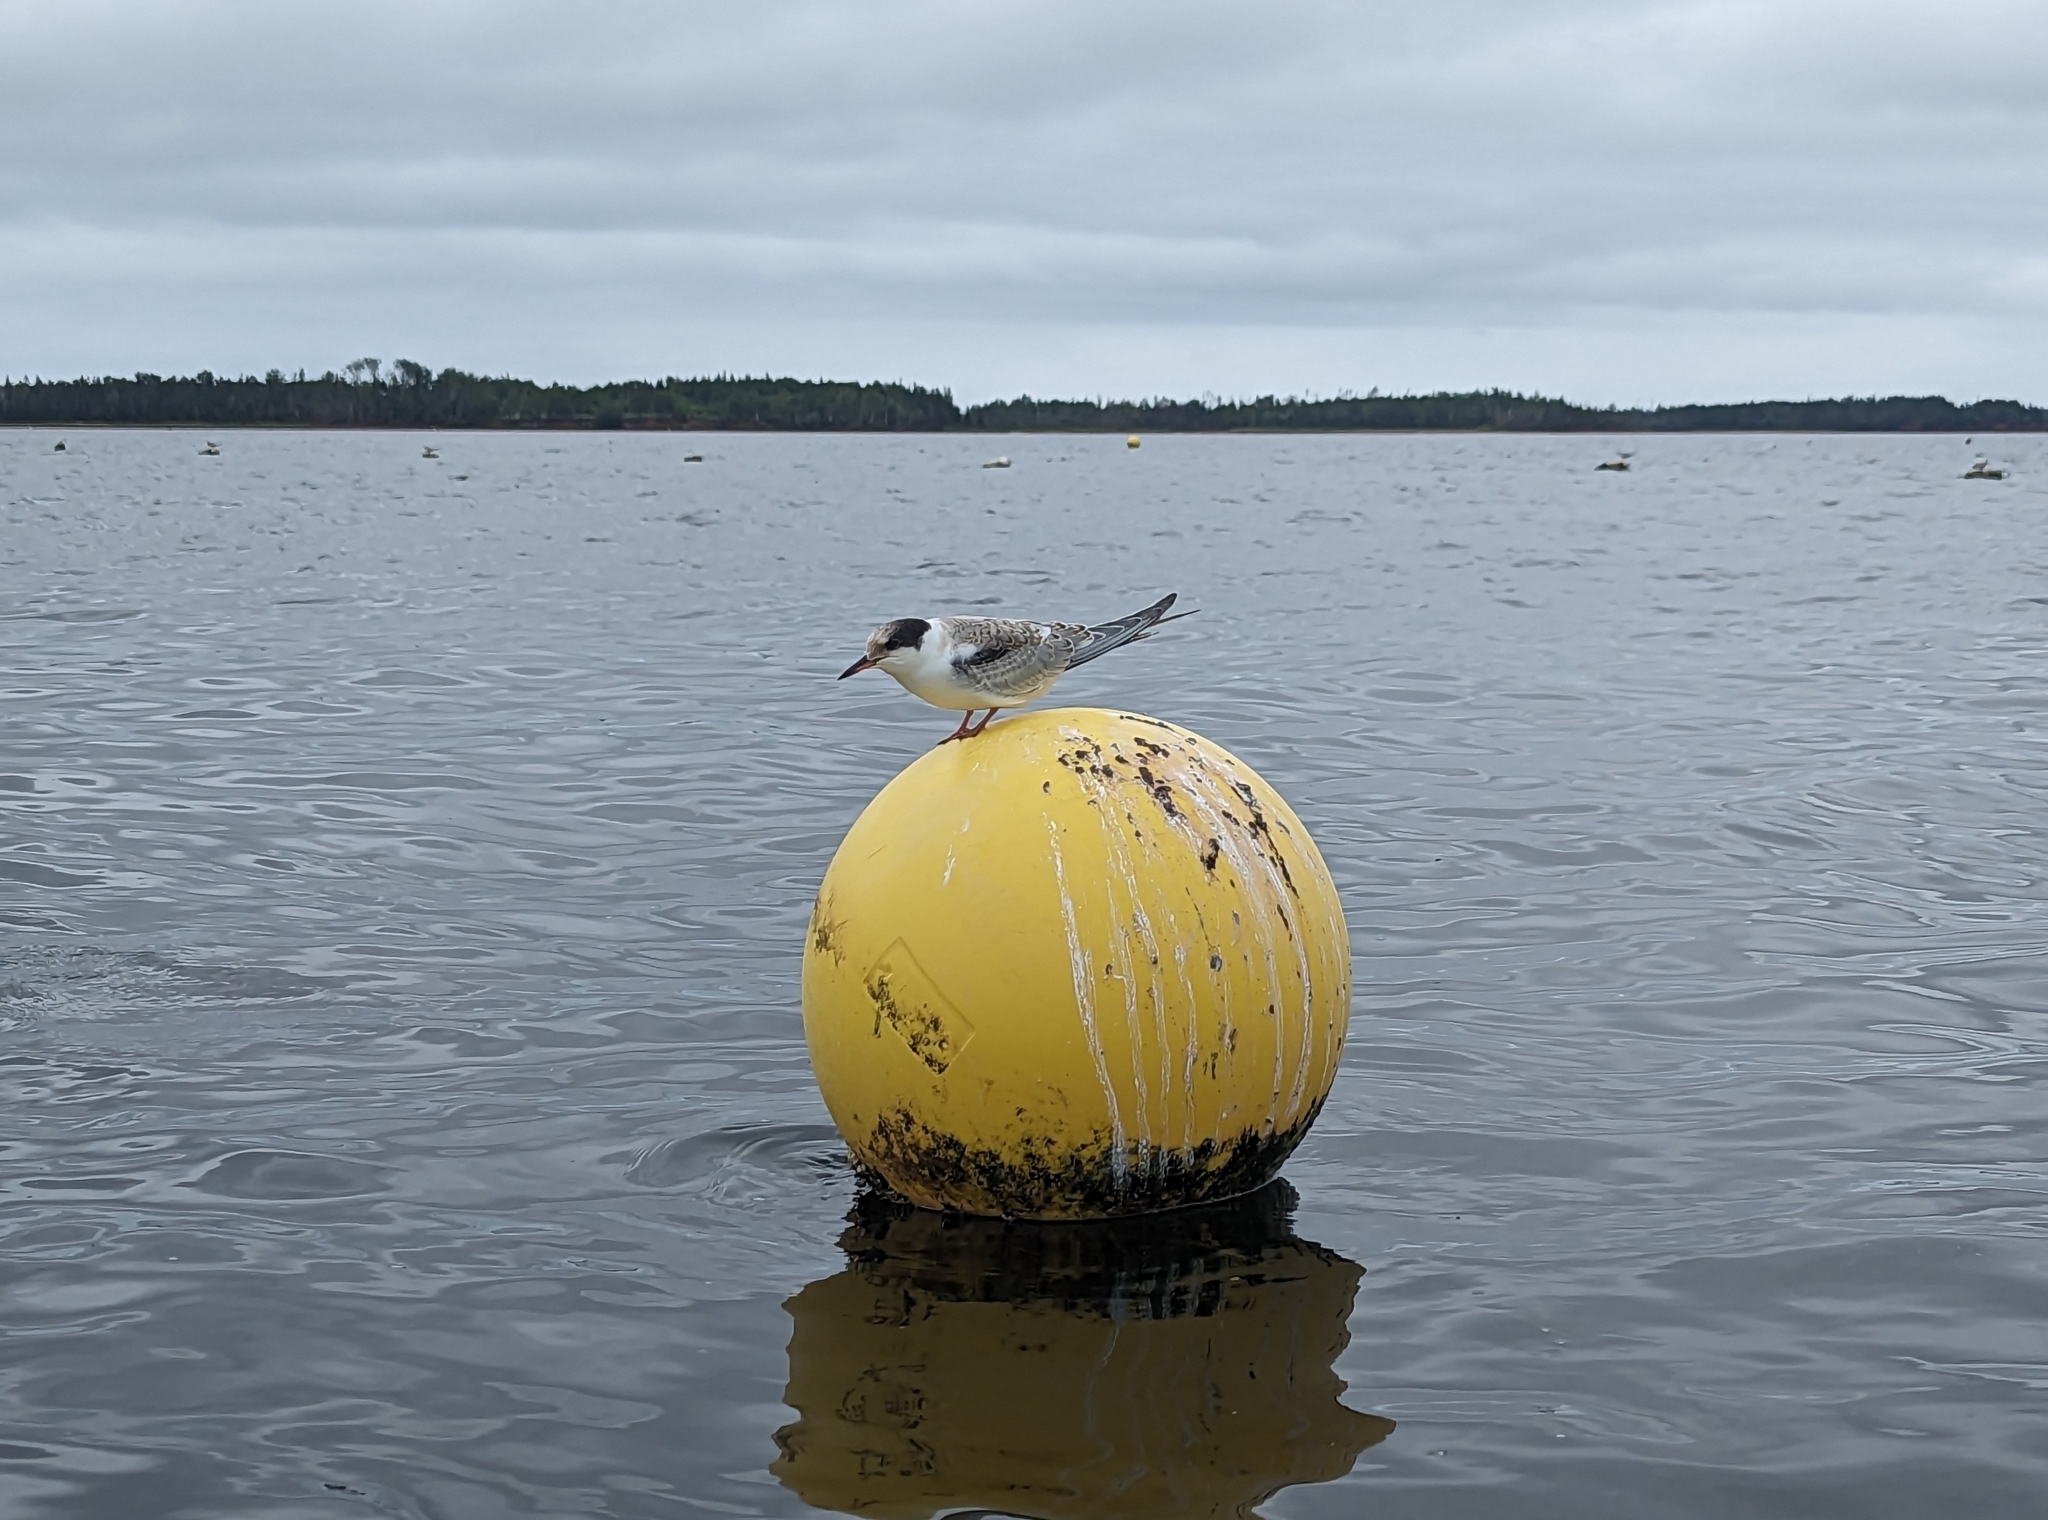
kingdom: Animalia
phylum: Chordata
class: Aves
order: Charadriiformes
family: Laridae
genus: Sterna
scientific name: Sterna hirundo
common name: Common tern
